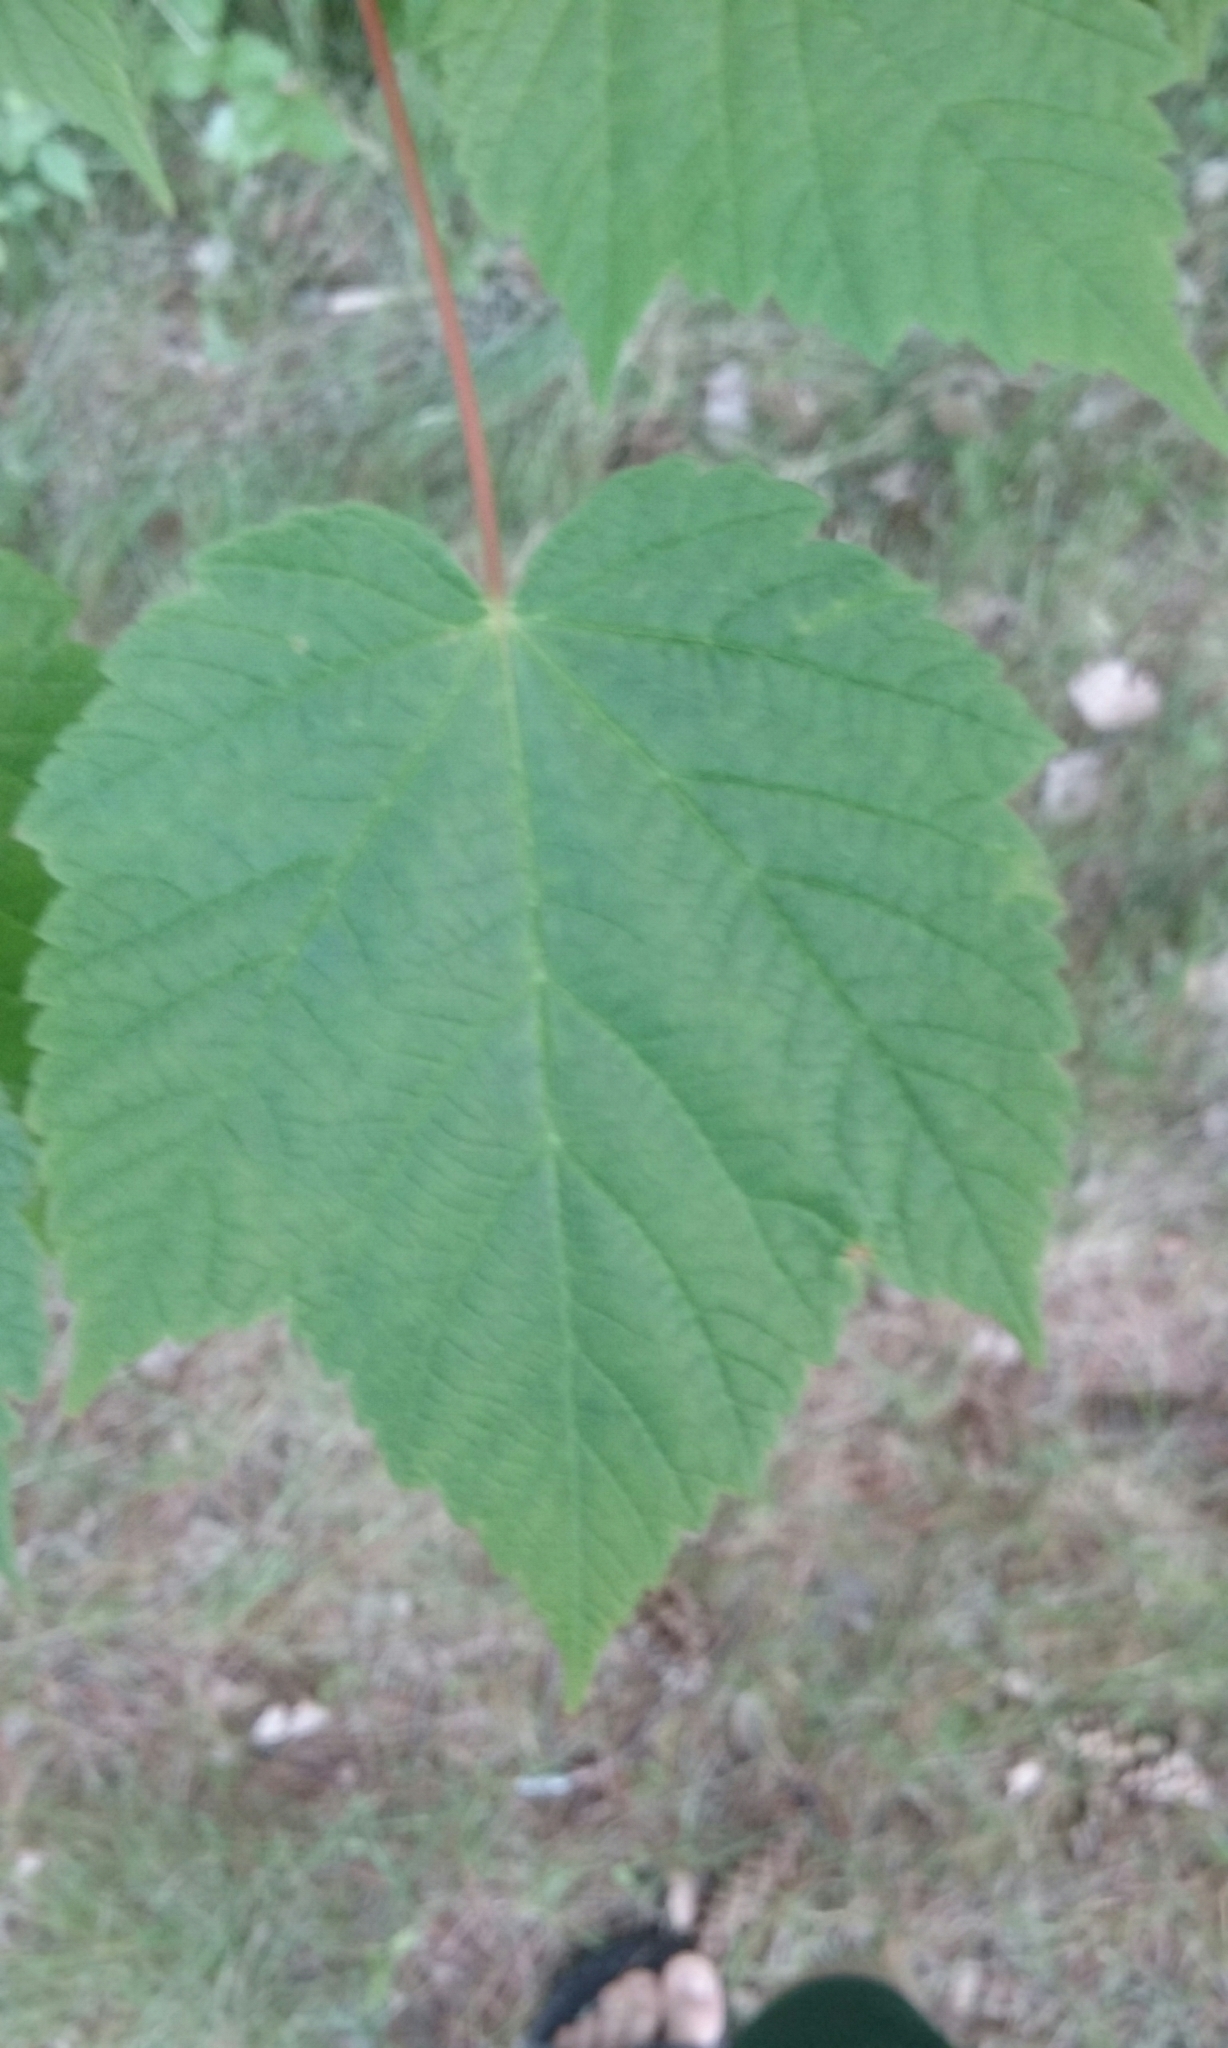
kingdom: Plantae
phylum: Tracheophyta
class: Magnoliopsida
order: Sapindales
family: Sapindaceae
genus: Acer
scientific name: Acer spicatum
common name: Mountain maple
